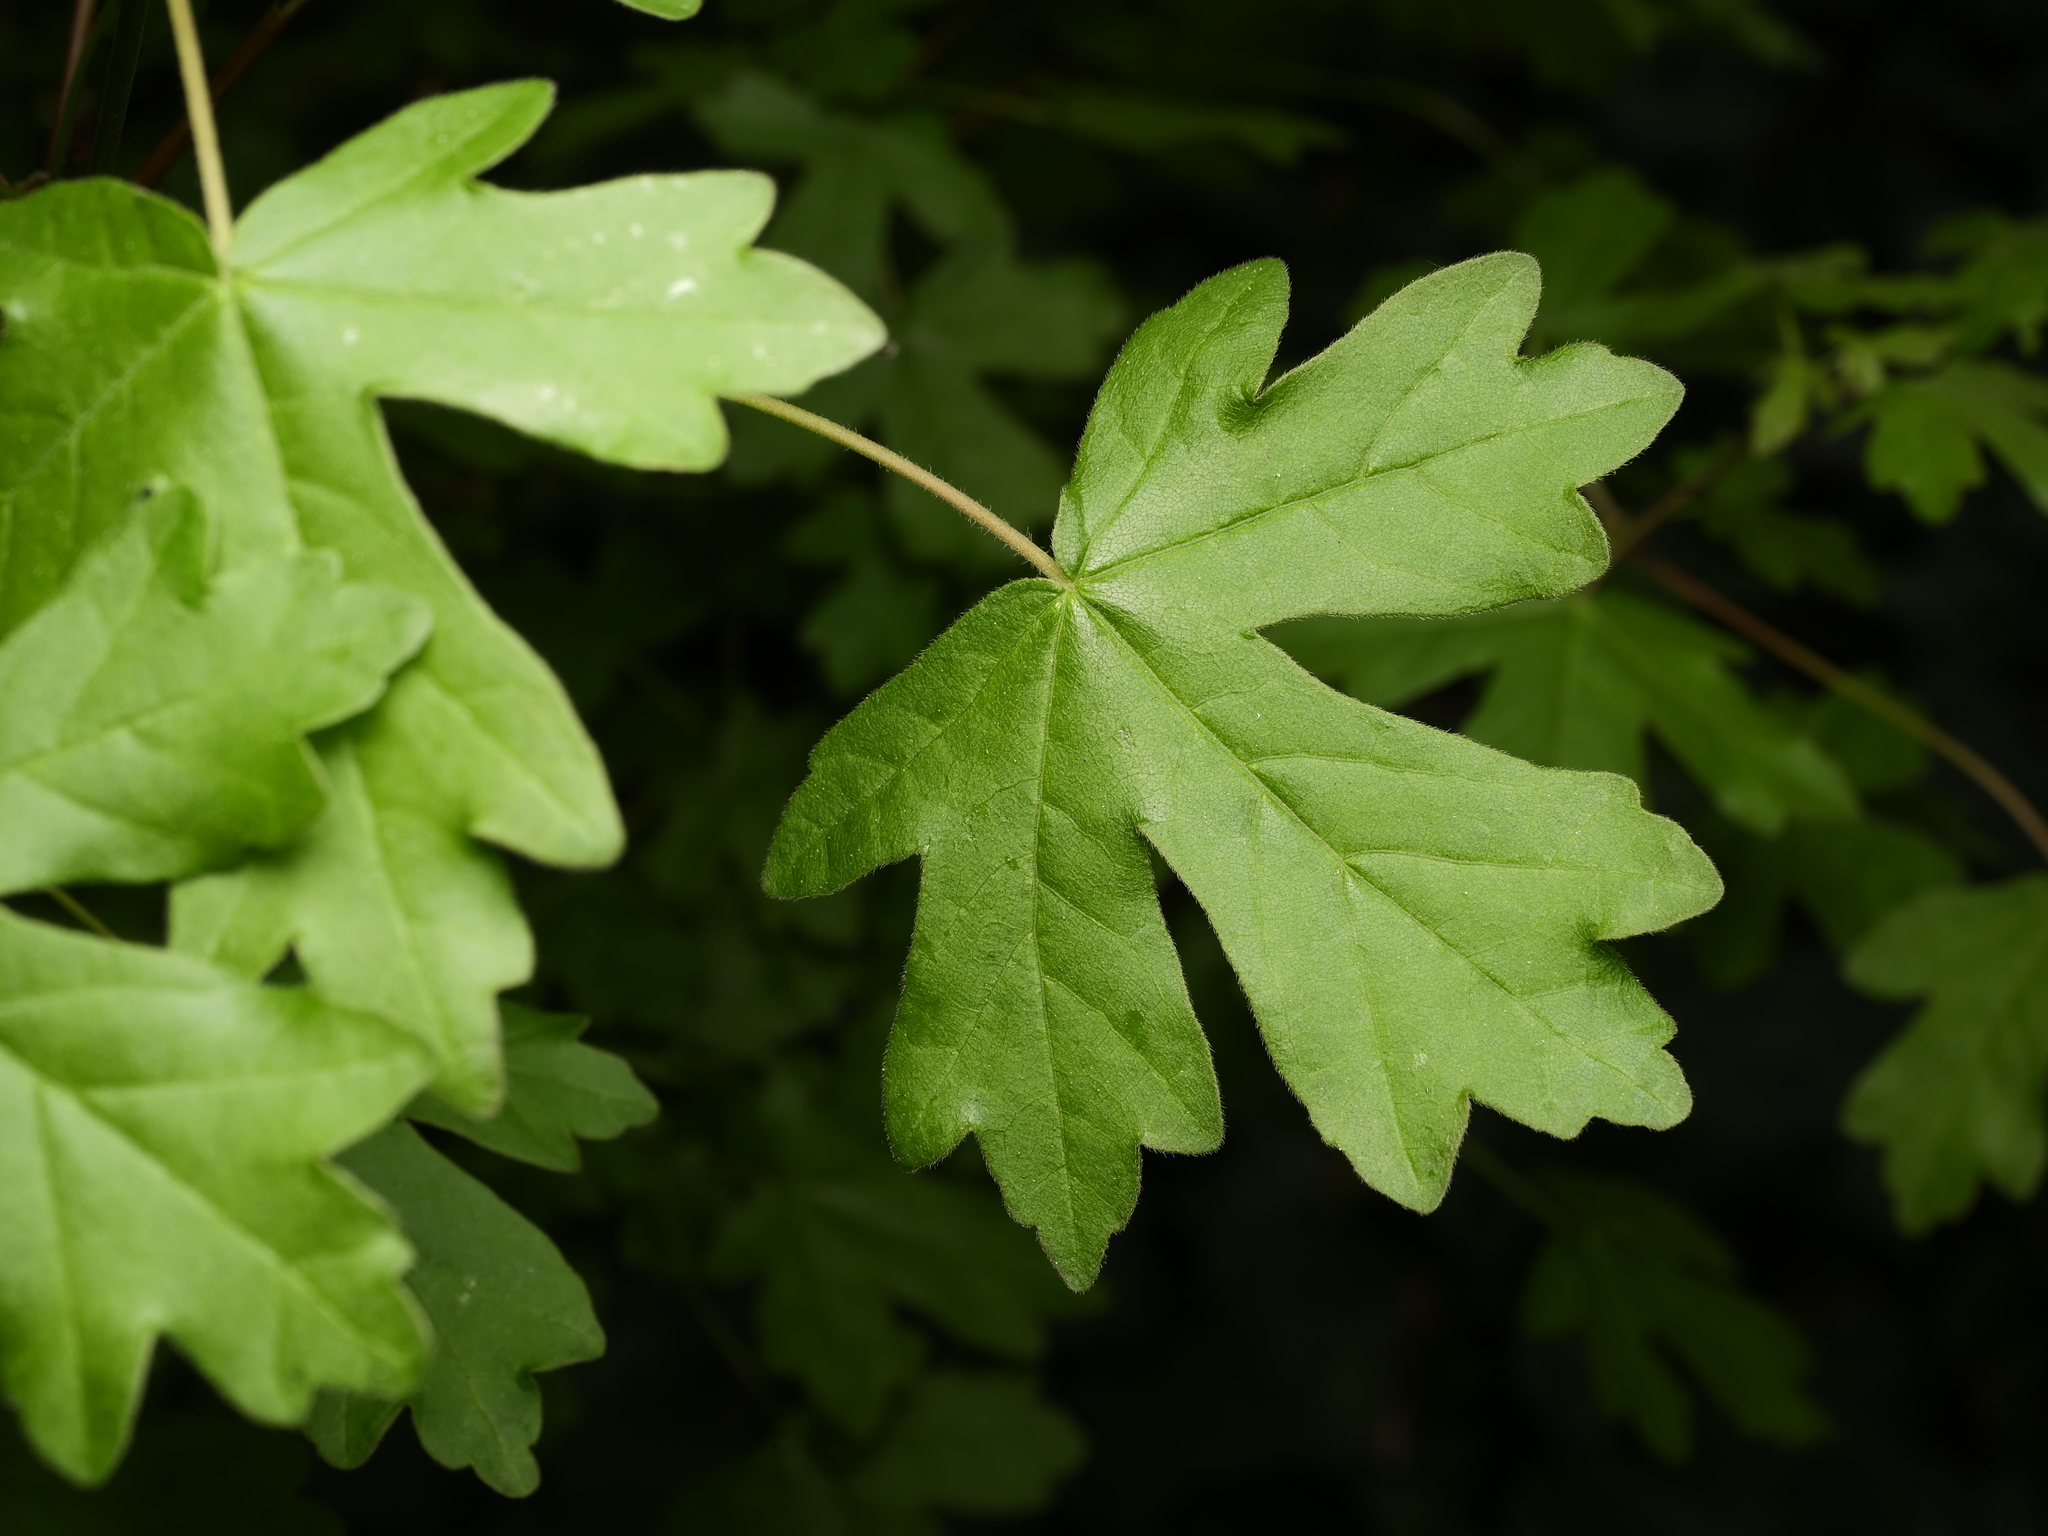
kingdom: Plantae
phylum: Tracheophyta
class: Magnoliopsida
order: Sapindales
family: Sapindaceae
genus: Acer
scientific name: Acer campestre
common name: Field maple
